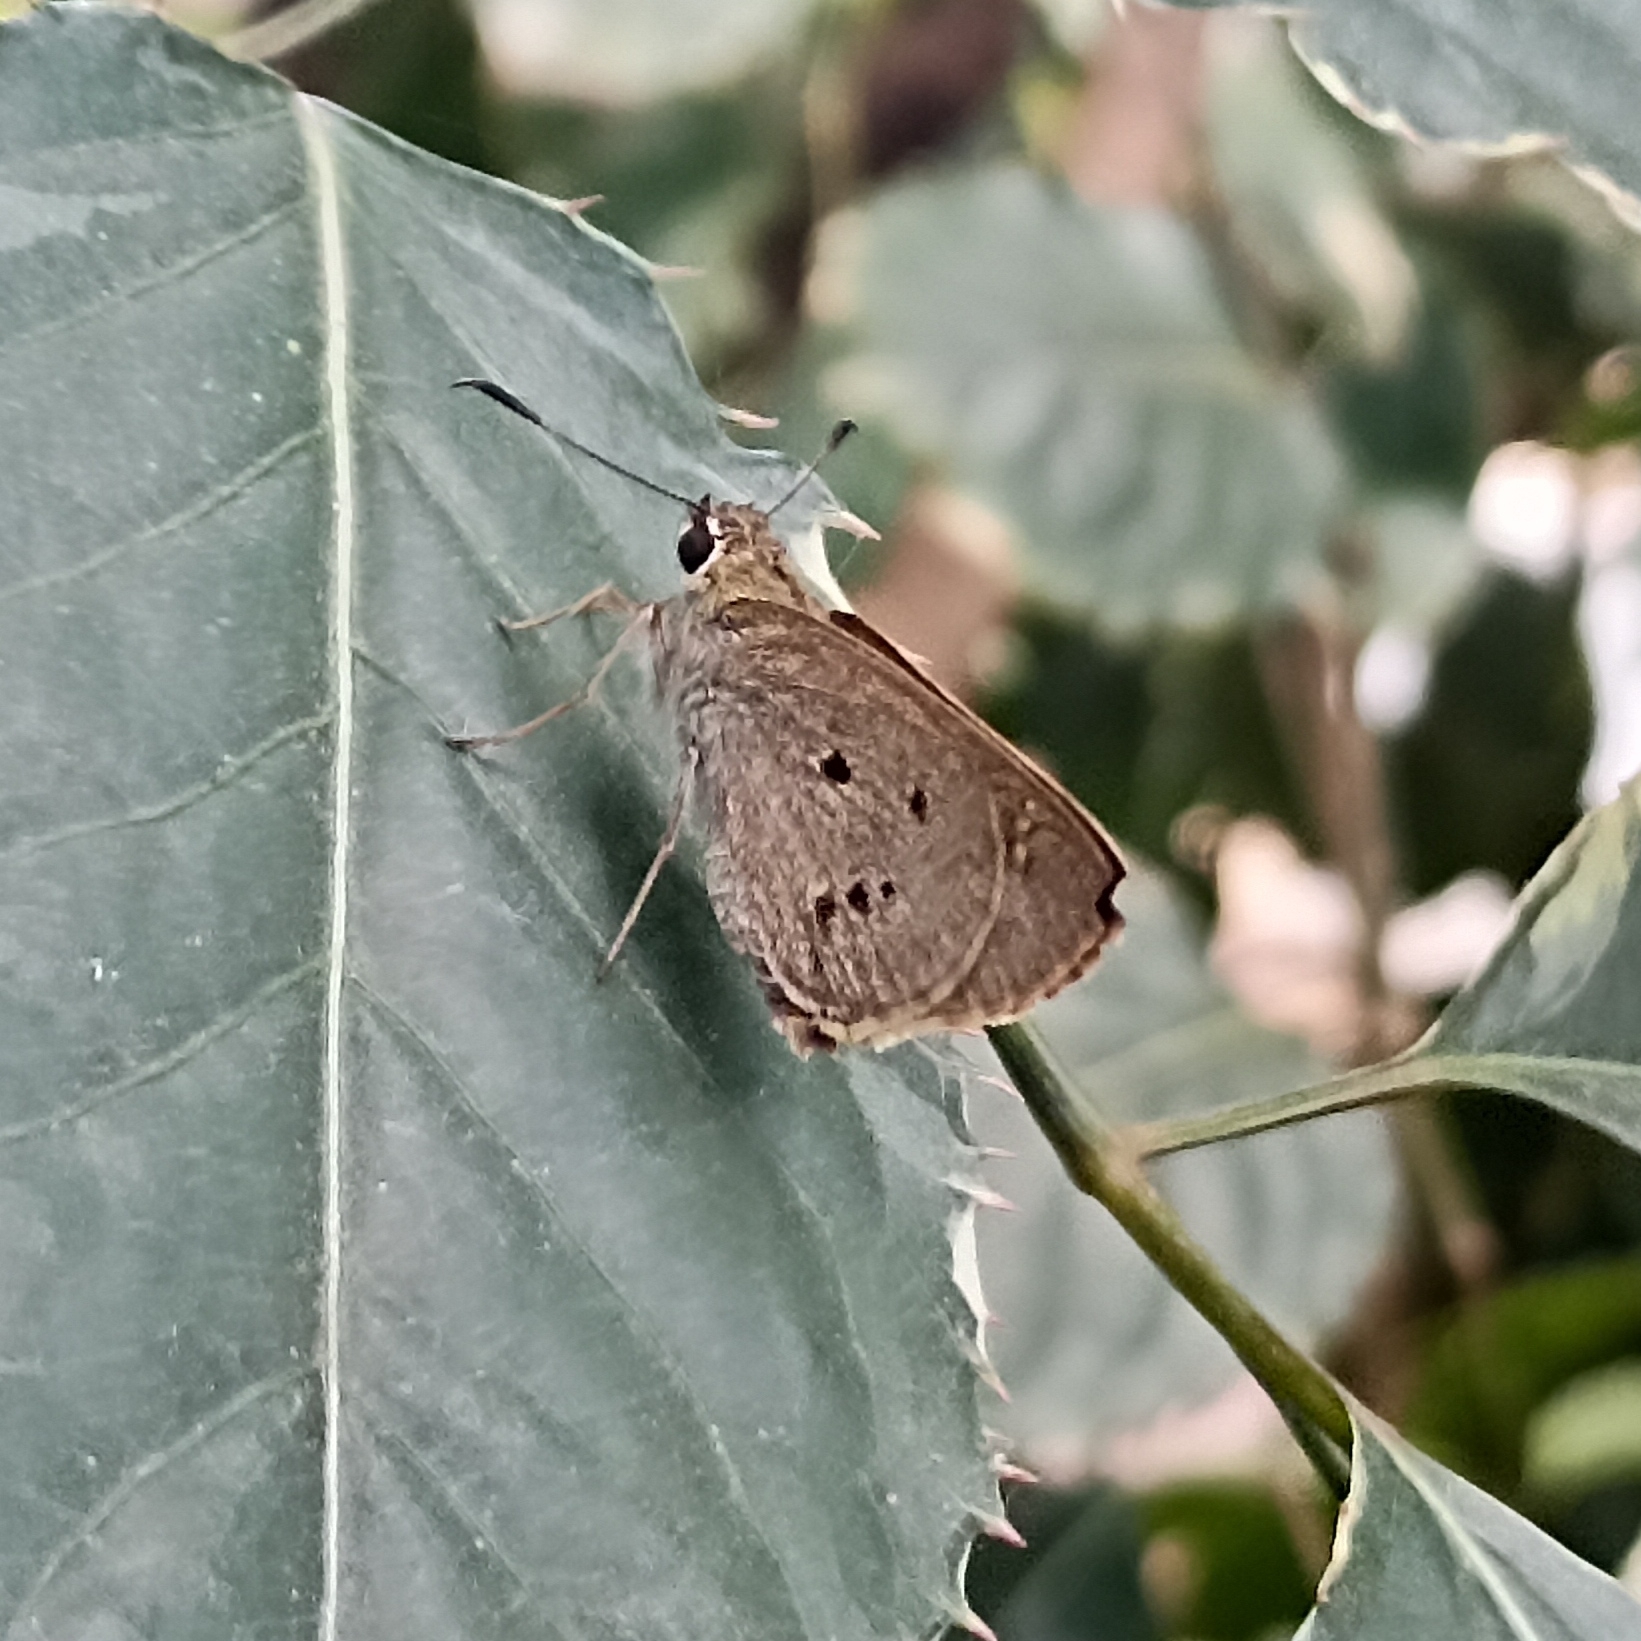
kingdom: Animalia
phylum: Arthropoda
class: Insecta
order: Lepidoptera
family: Hesperiidae
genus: Suastus
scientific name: Suastus gremius
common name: Indian palm bob
